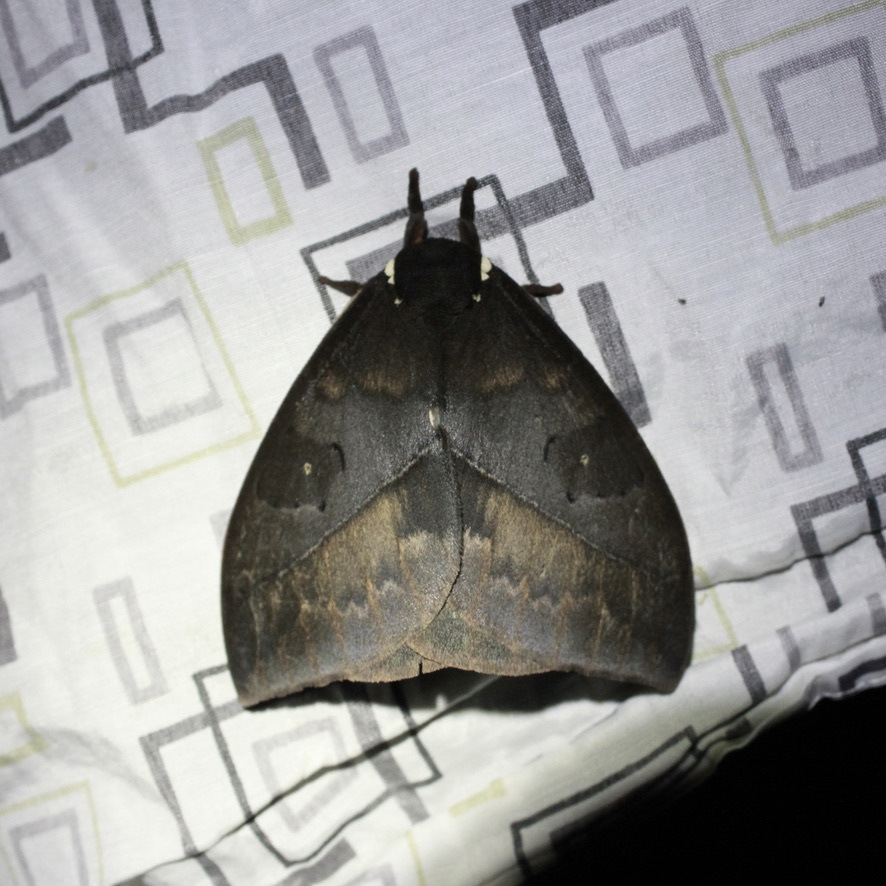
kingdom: Animalia
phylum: Arthropoda
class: Insecta
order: Lepidoptera
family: Saturniidae
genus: Automeris
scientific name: Automeris egeus
